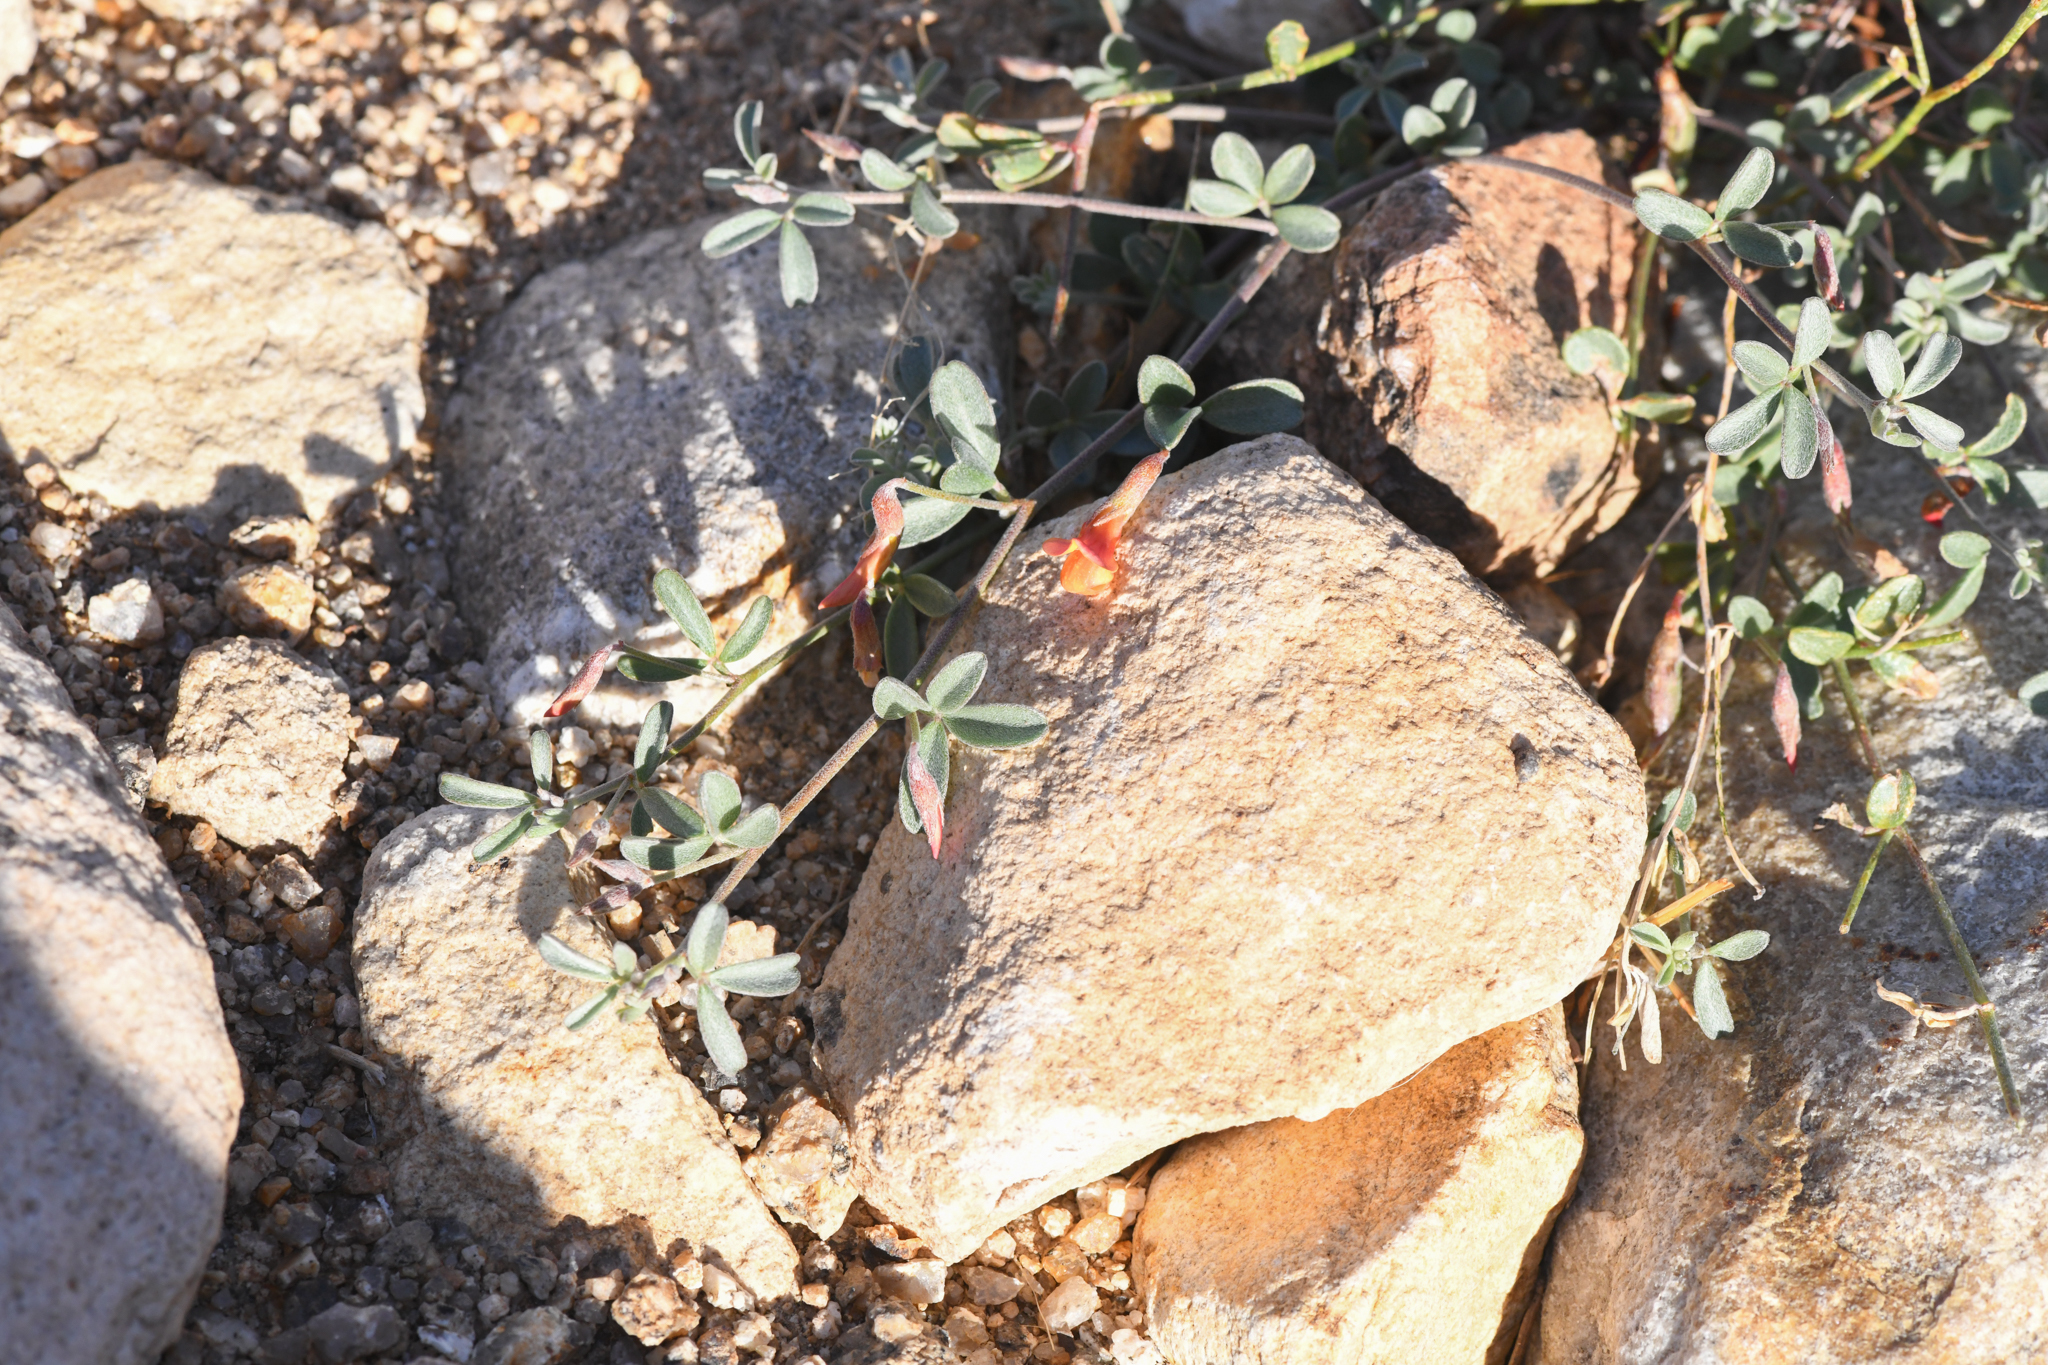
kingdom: Plantae
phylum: Tracheophyta
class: Magnoliopsida
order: Fabales
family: Fabaceae
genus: Acmispon
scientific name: Acmispon argyraeus
